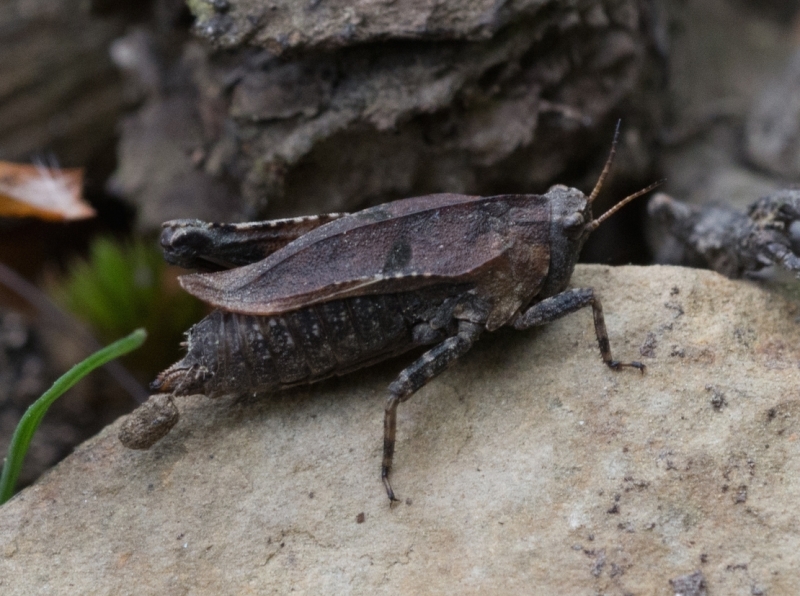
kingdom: Animalia
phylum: Arthropoda
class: Insecta
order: Orthoptera
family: Tetrigidae
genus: Tetrix
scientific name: Tetrix kraussi
